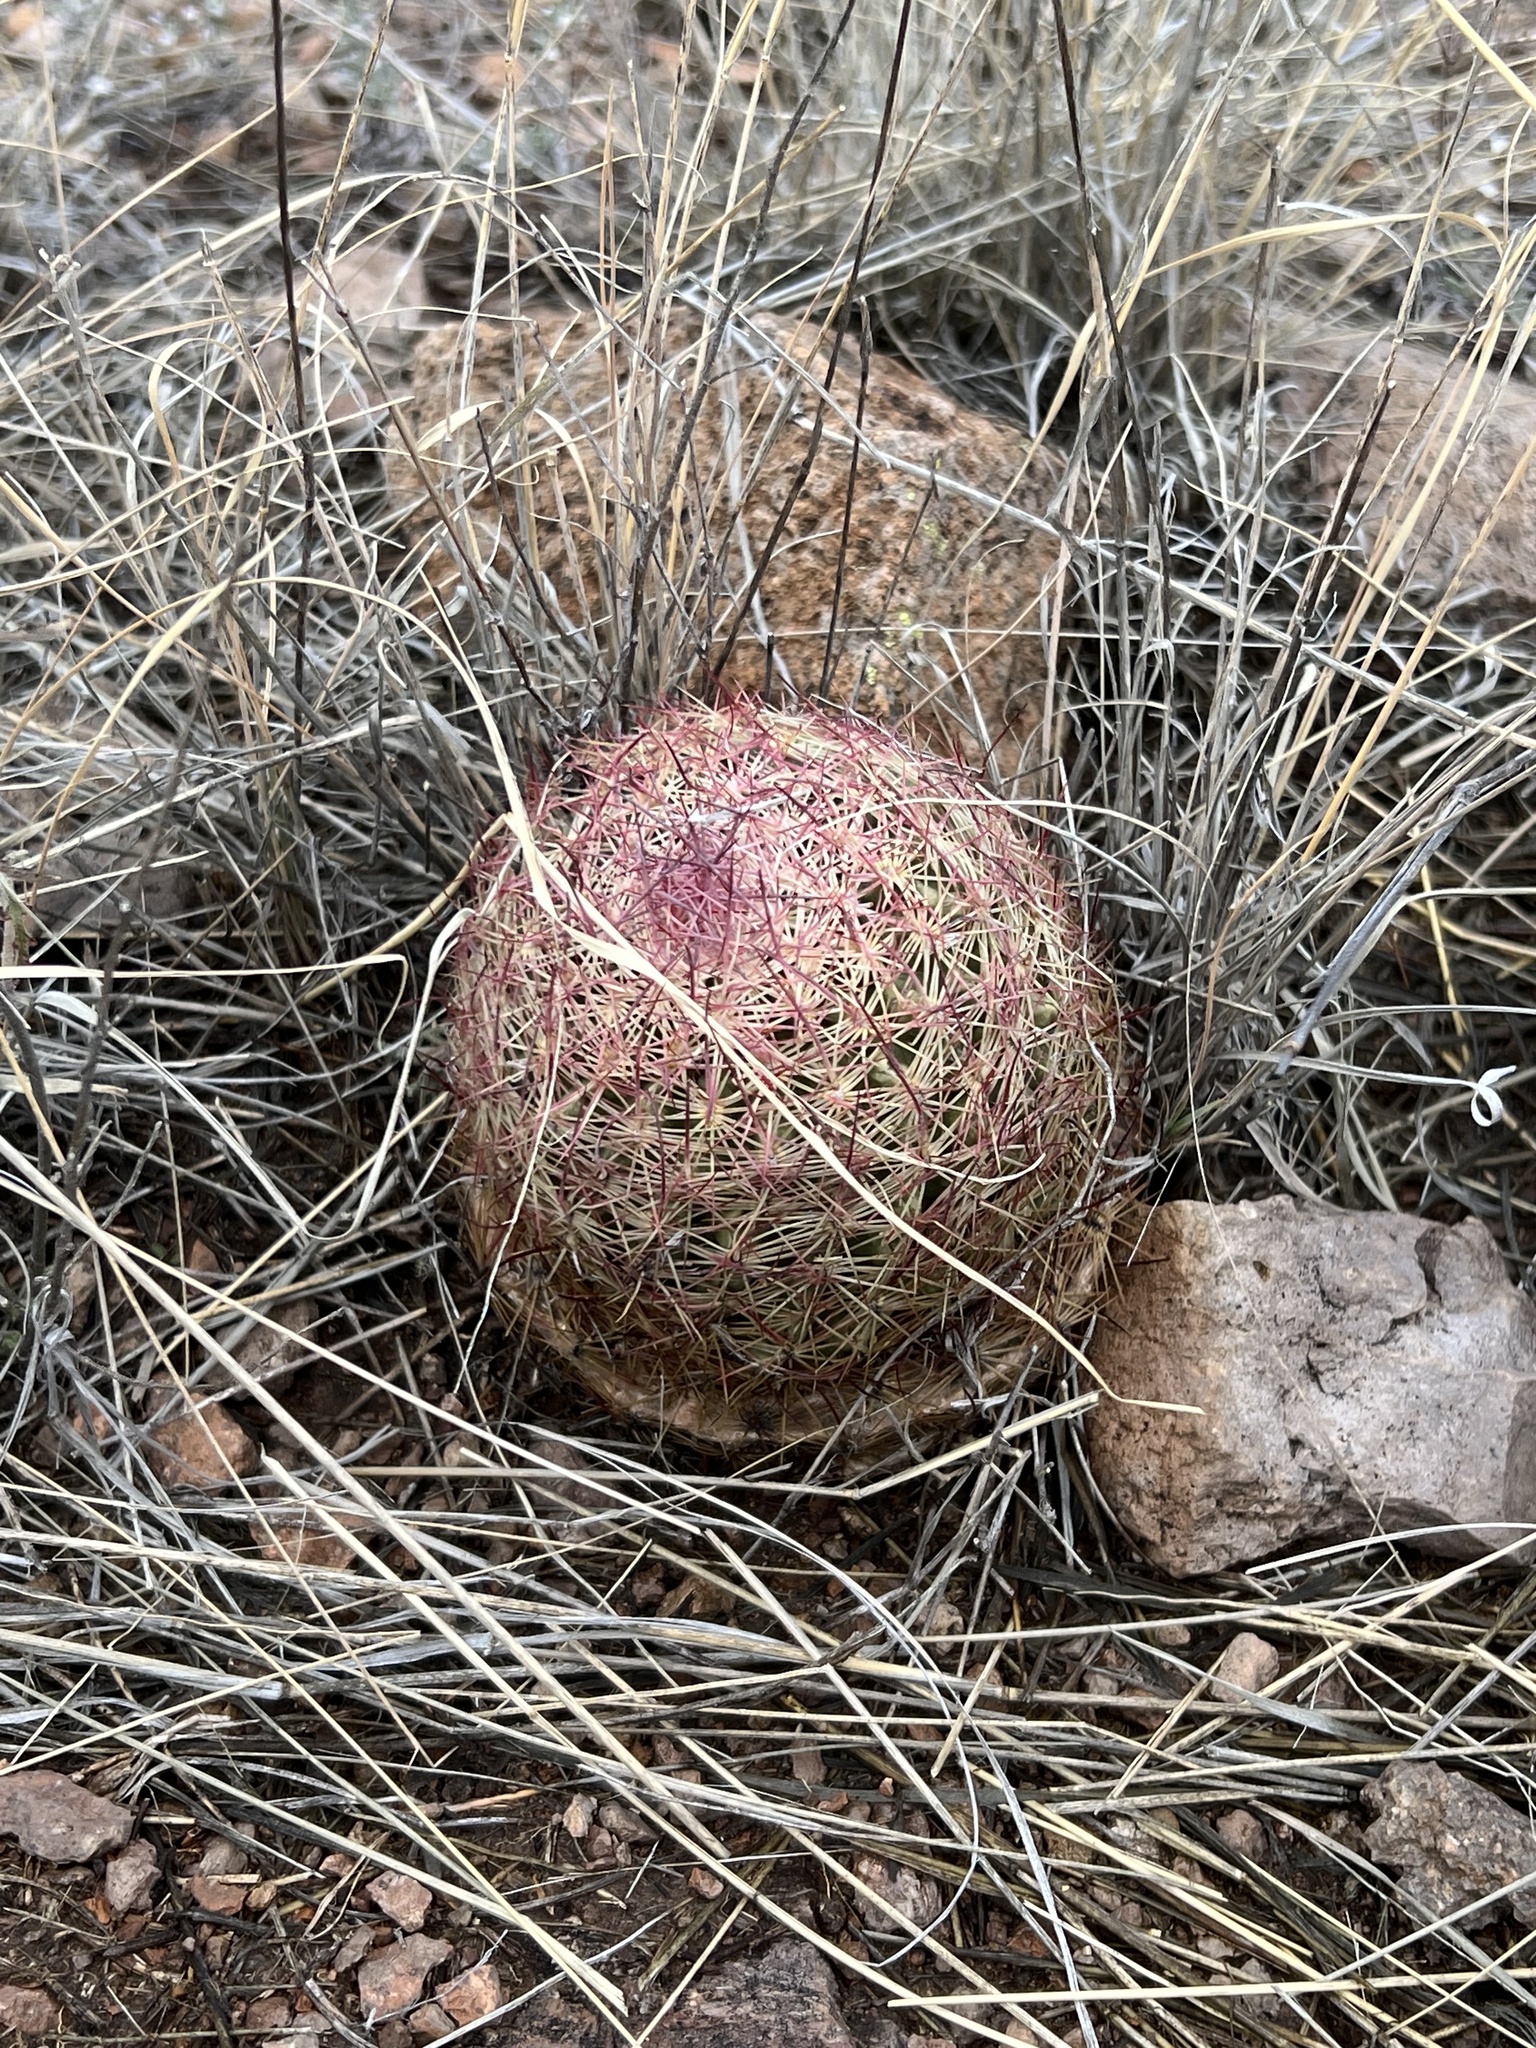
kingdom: Plantae
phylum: Tracheophyta
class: Magnoliopsida
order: Caryophyllales
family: Cactaceae
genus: Sclerocactus
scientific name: Sclerocactus johnsonii
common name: Eight-spine fishhook cactus
